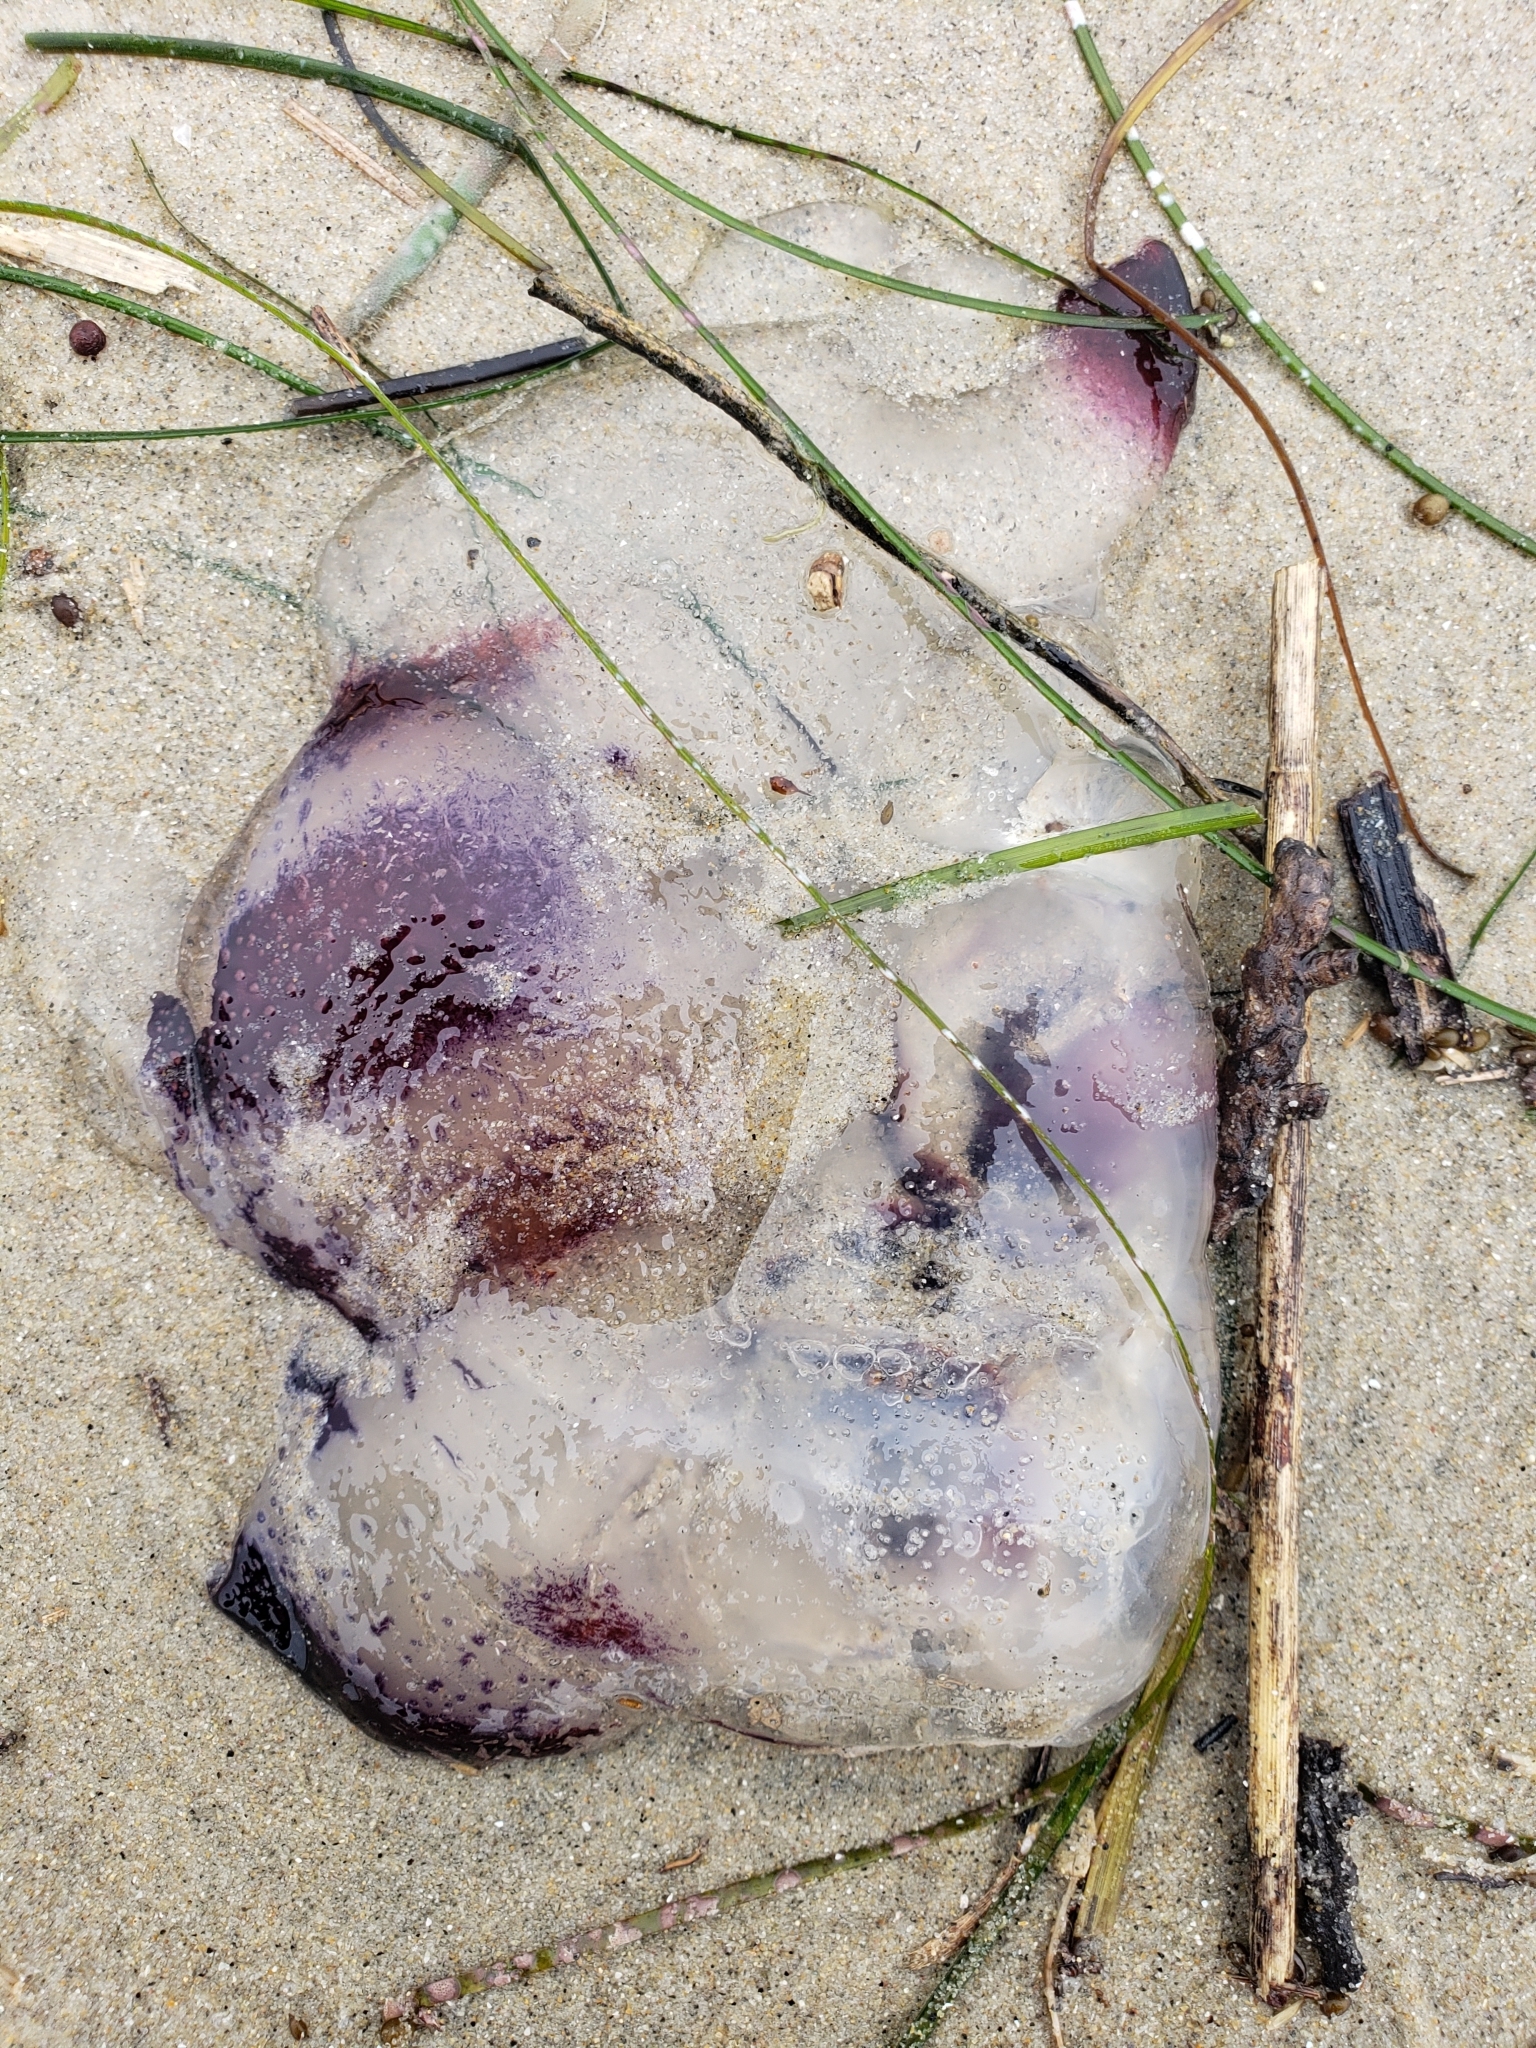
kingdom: Animalia
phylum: Cnidaria
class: Scyphozoa
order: Semaeostomeae
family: Pelagiidae
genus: Chrysaora
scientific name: Chrysaora colorata
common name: Purple-striped jellyfish
